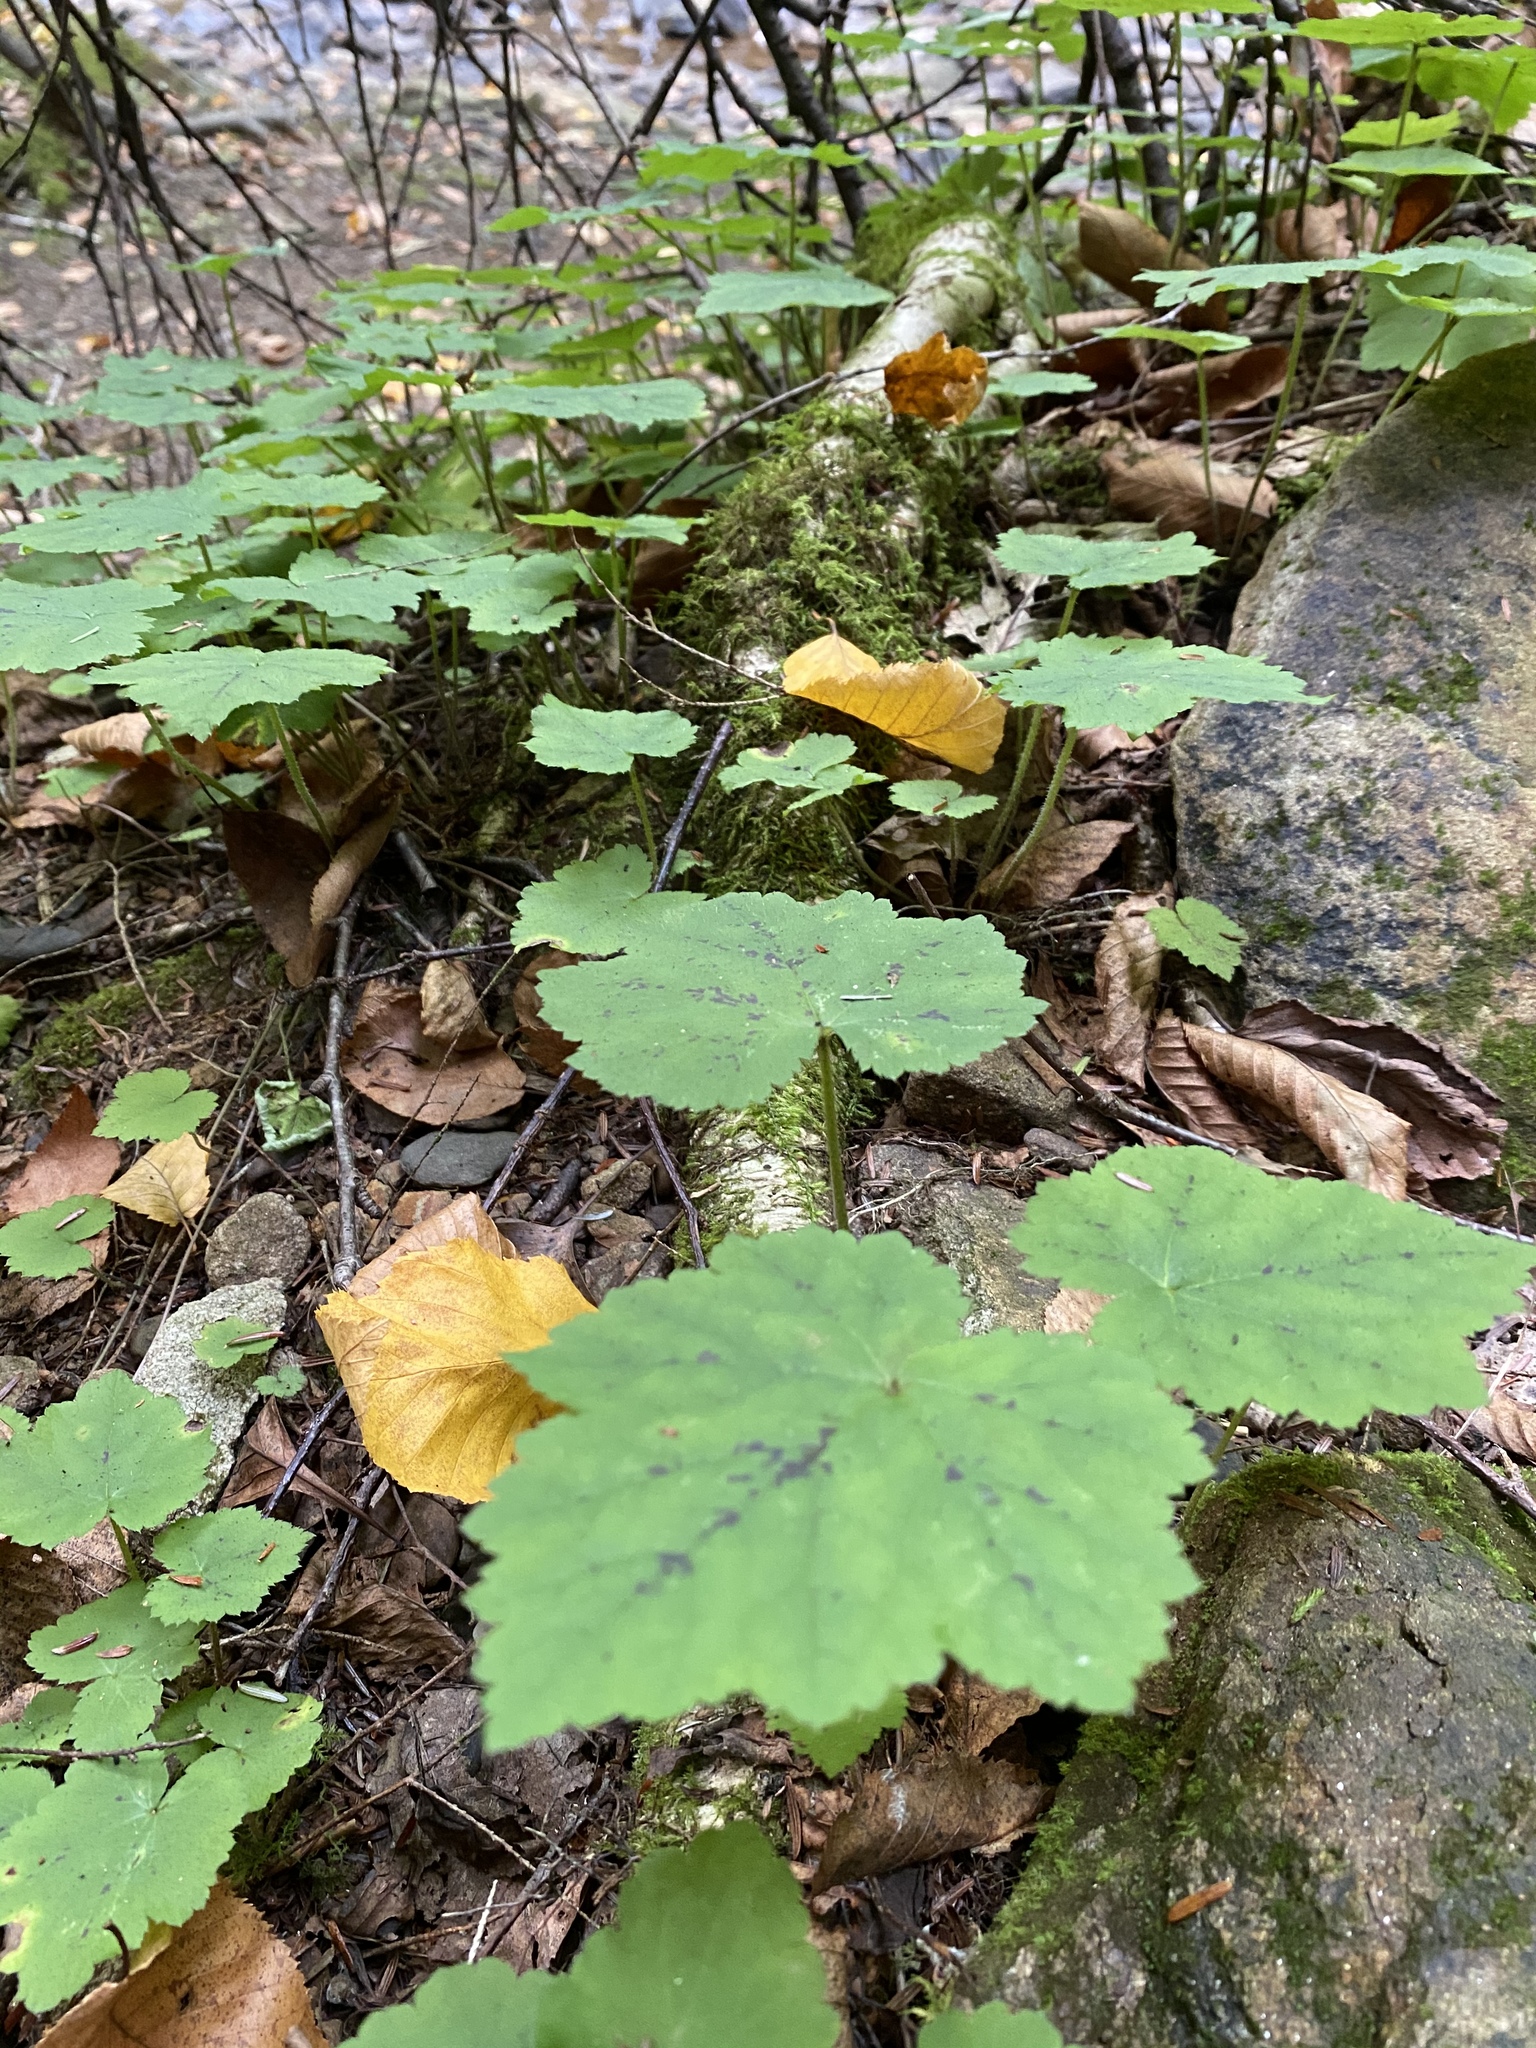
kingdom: Plantae
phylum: Tracheophyta
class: Magnoliopsida
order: Saxifragales
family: Saxifragaceae
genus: Tiarella
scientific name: Tiarella stolonifera
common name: Stoloniferous foamflower
